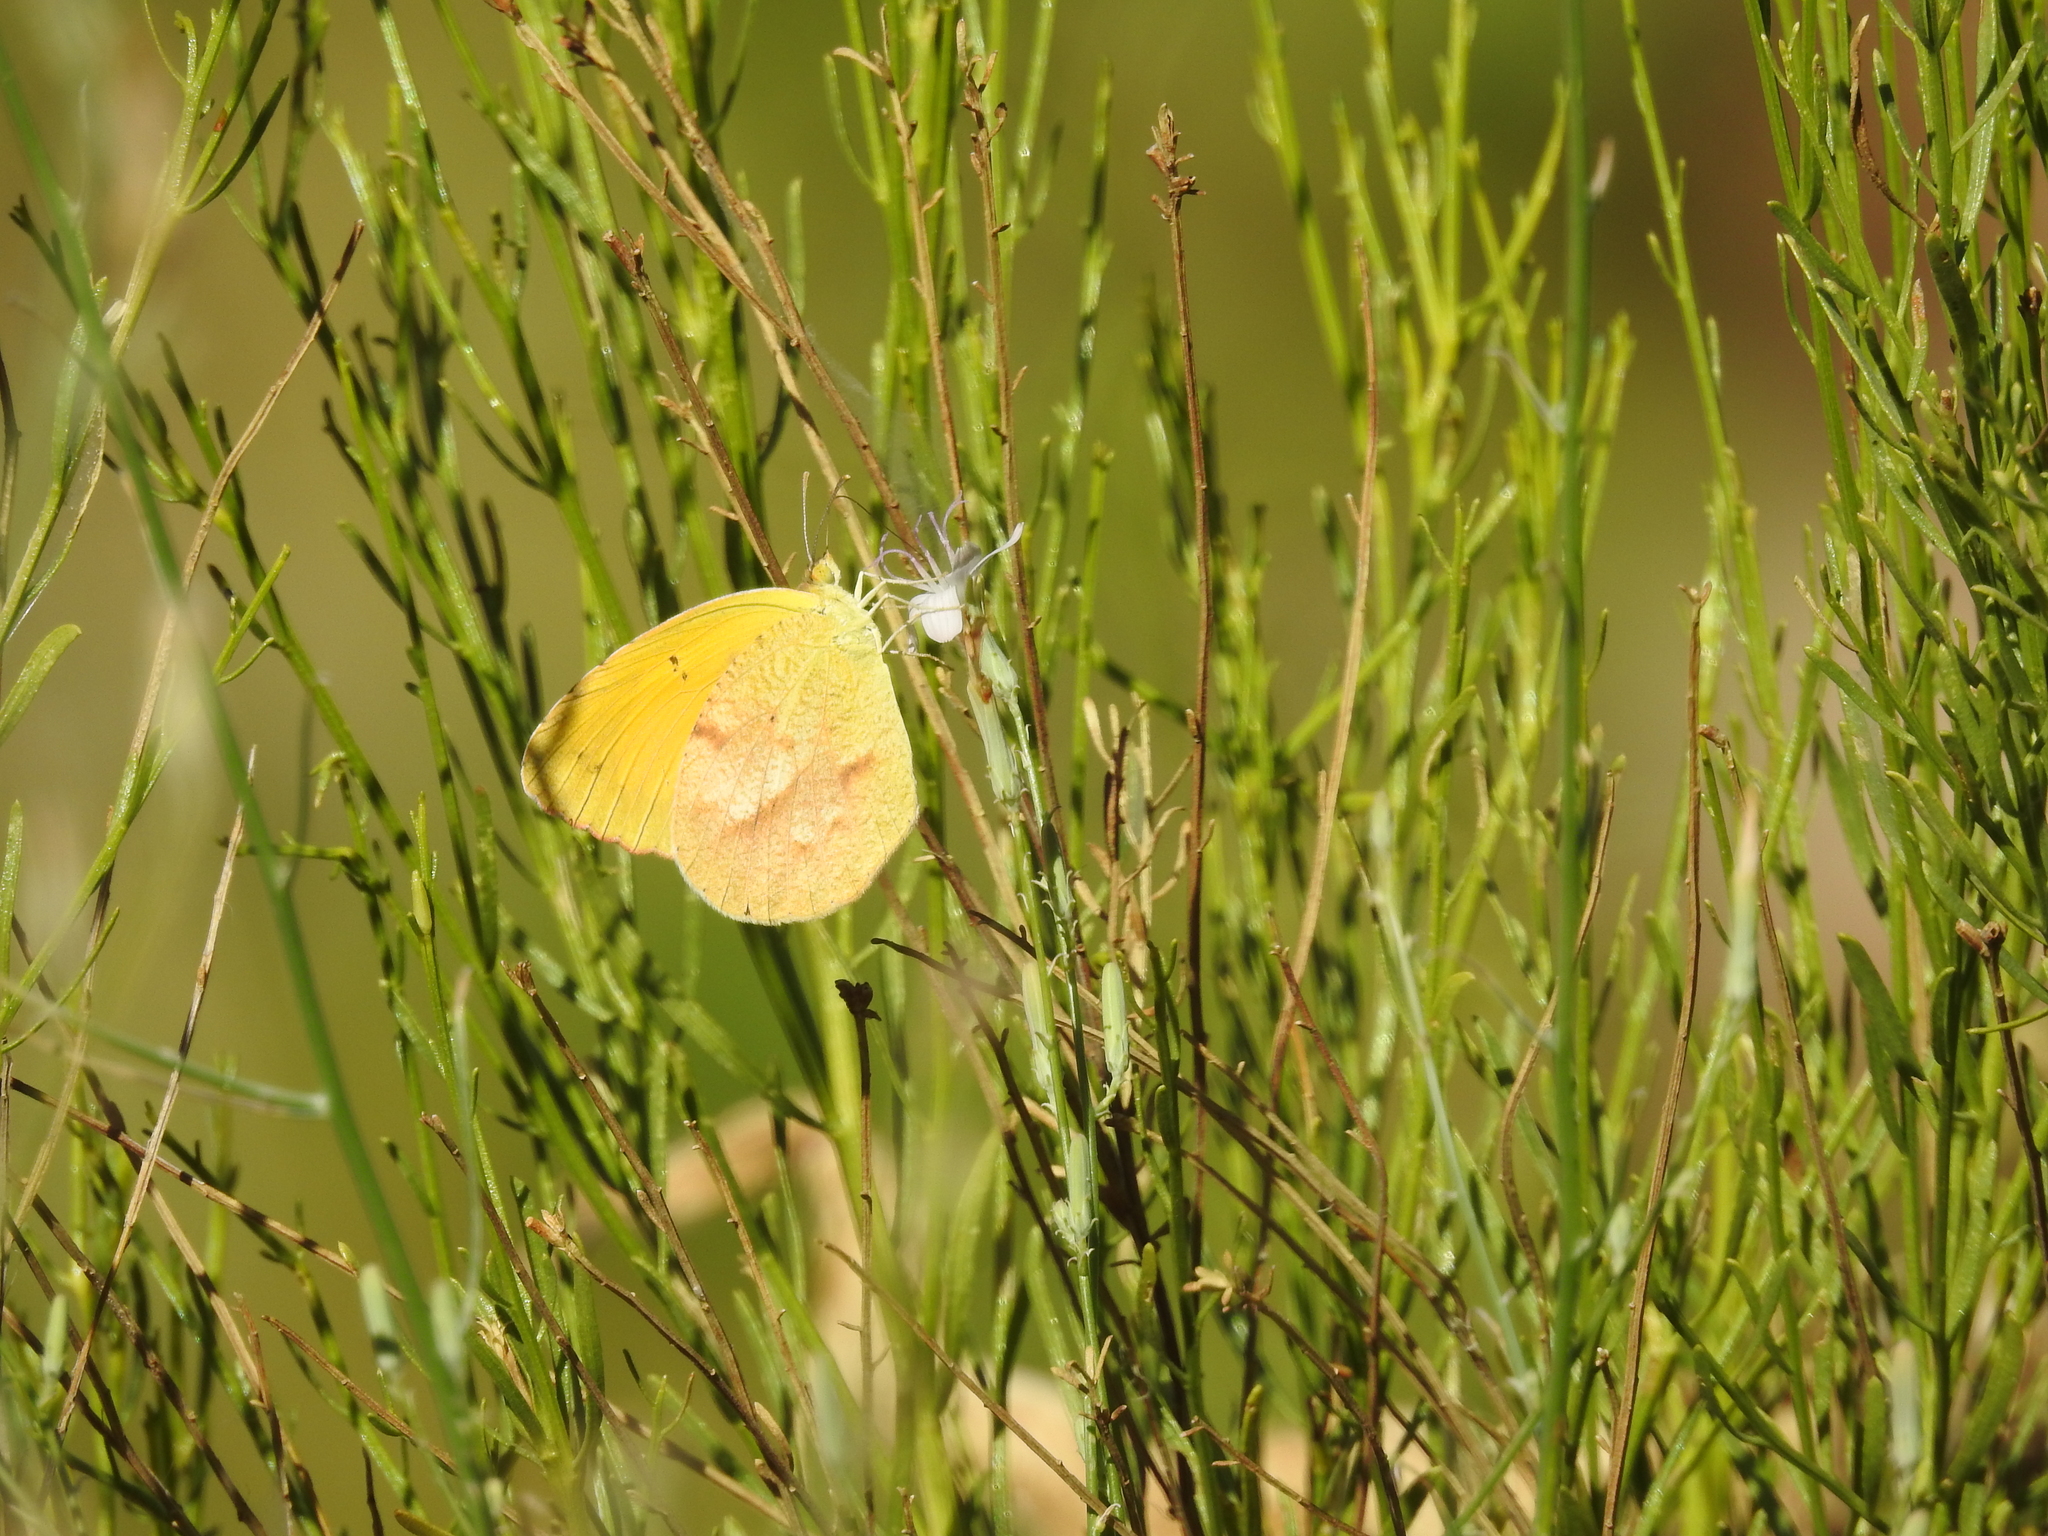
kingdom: Animalia
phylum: Arthropoda
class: Insecta
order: Lepidoptera
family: Pieridae
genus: Abaeis
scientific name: Abaeis nicippe
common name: Sleepy orange
